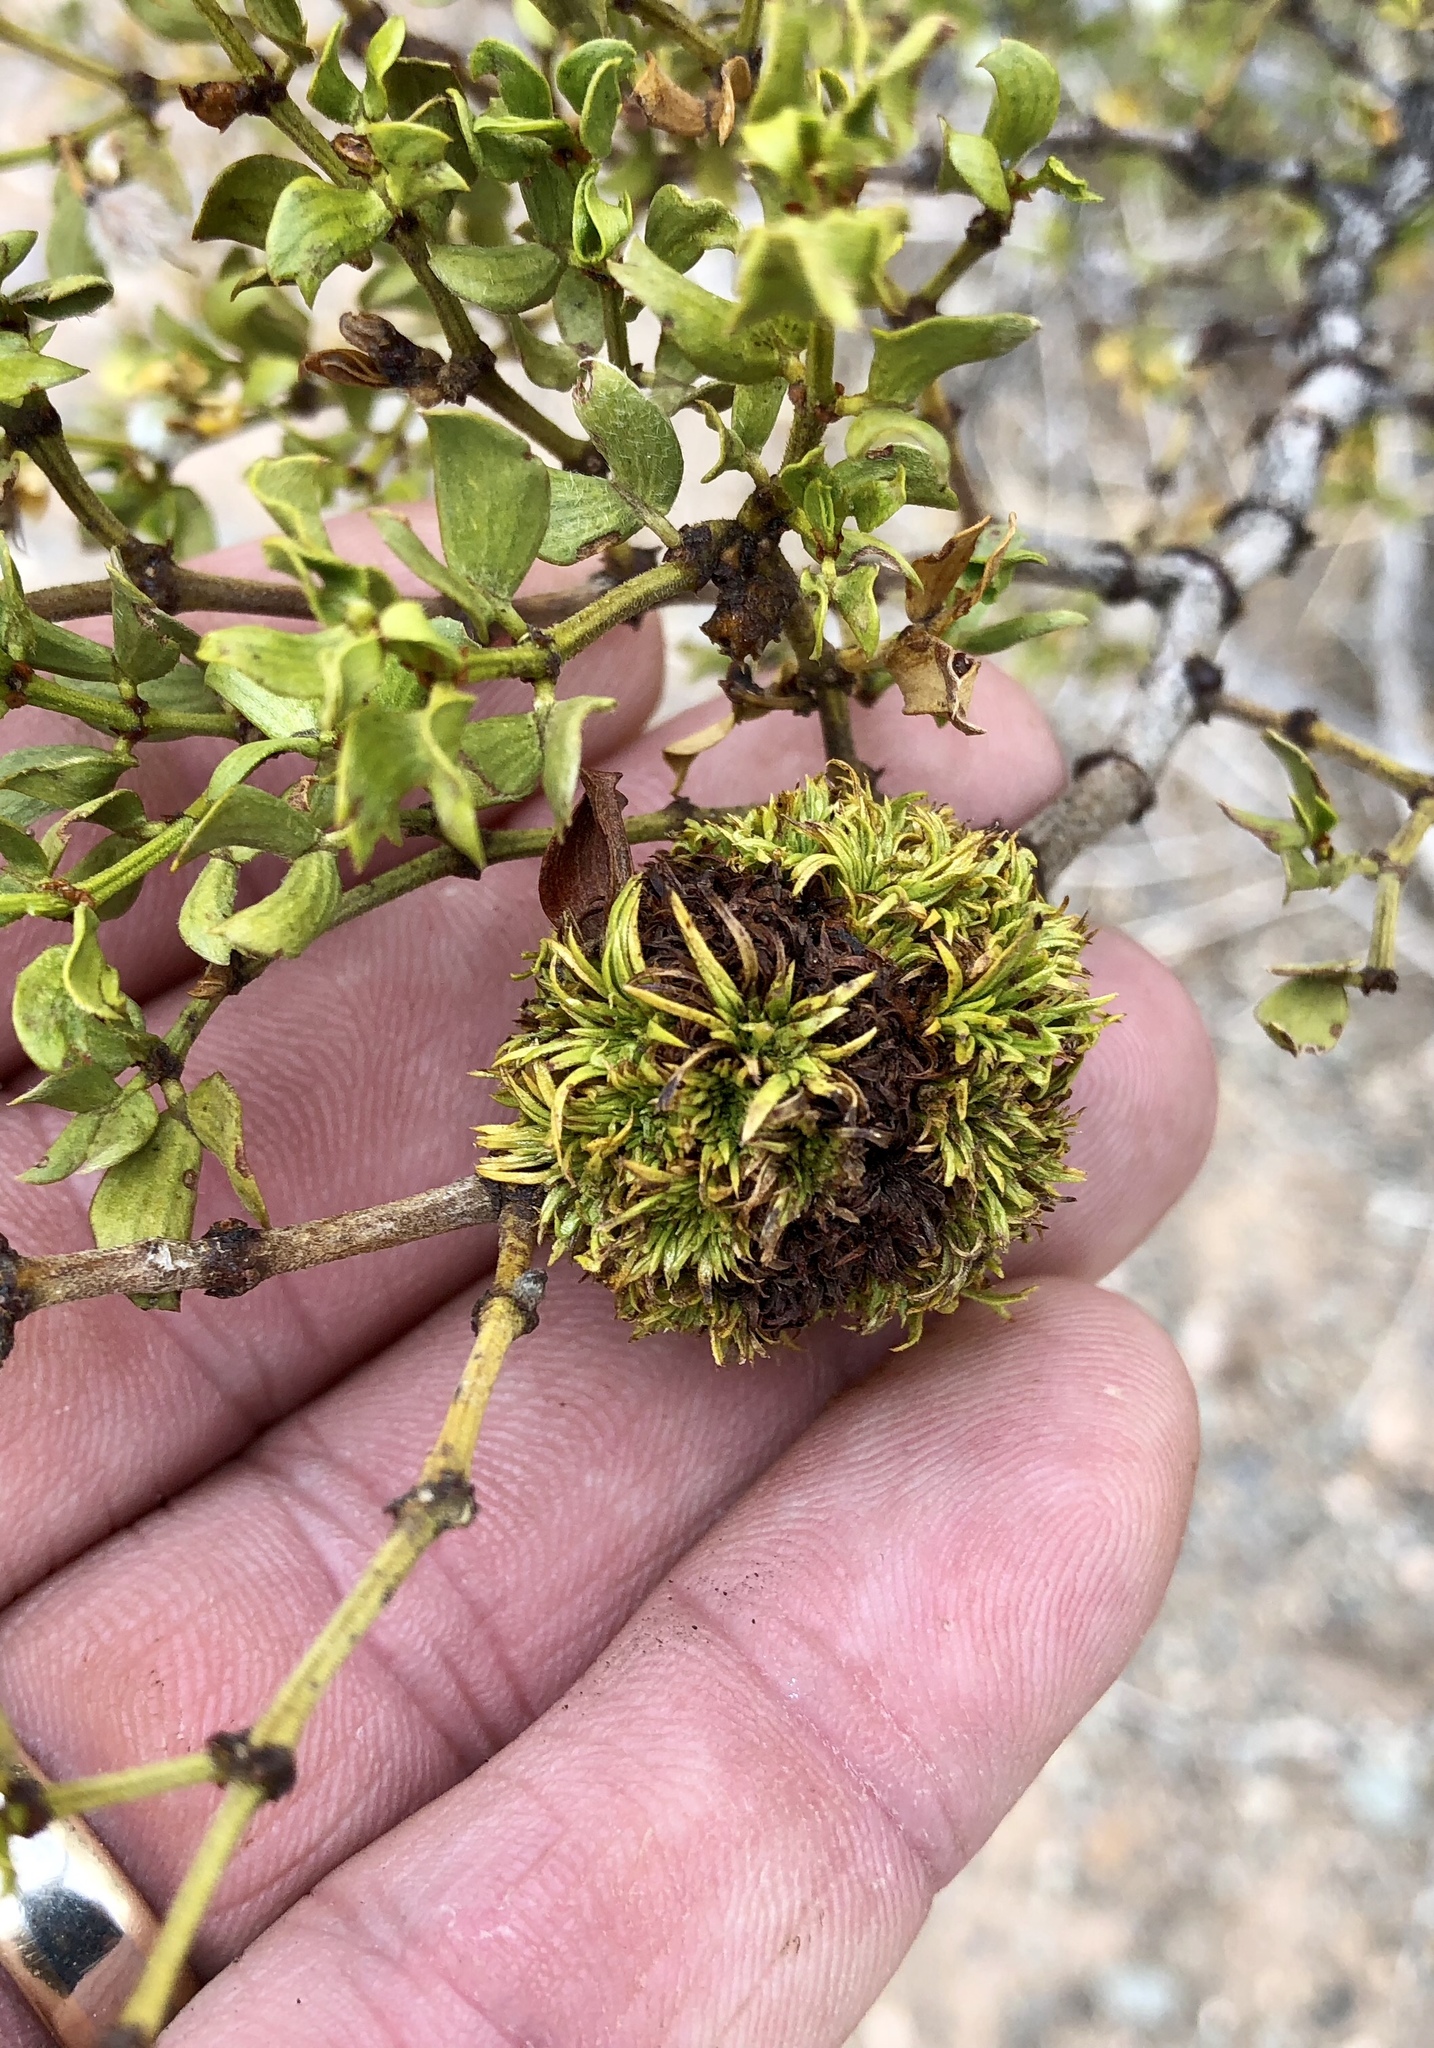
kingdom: Animalia
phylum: Arthropoda
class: Insecta
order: Diptera
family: Cecidomyiidae
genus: Asphondylia
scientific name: Asphondylia auripila
